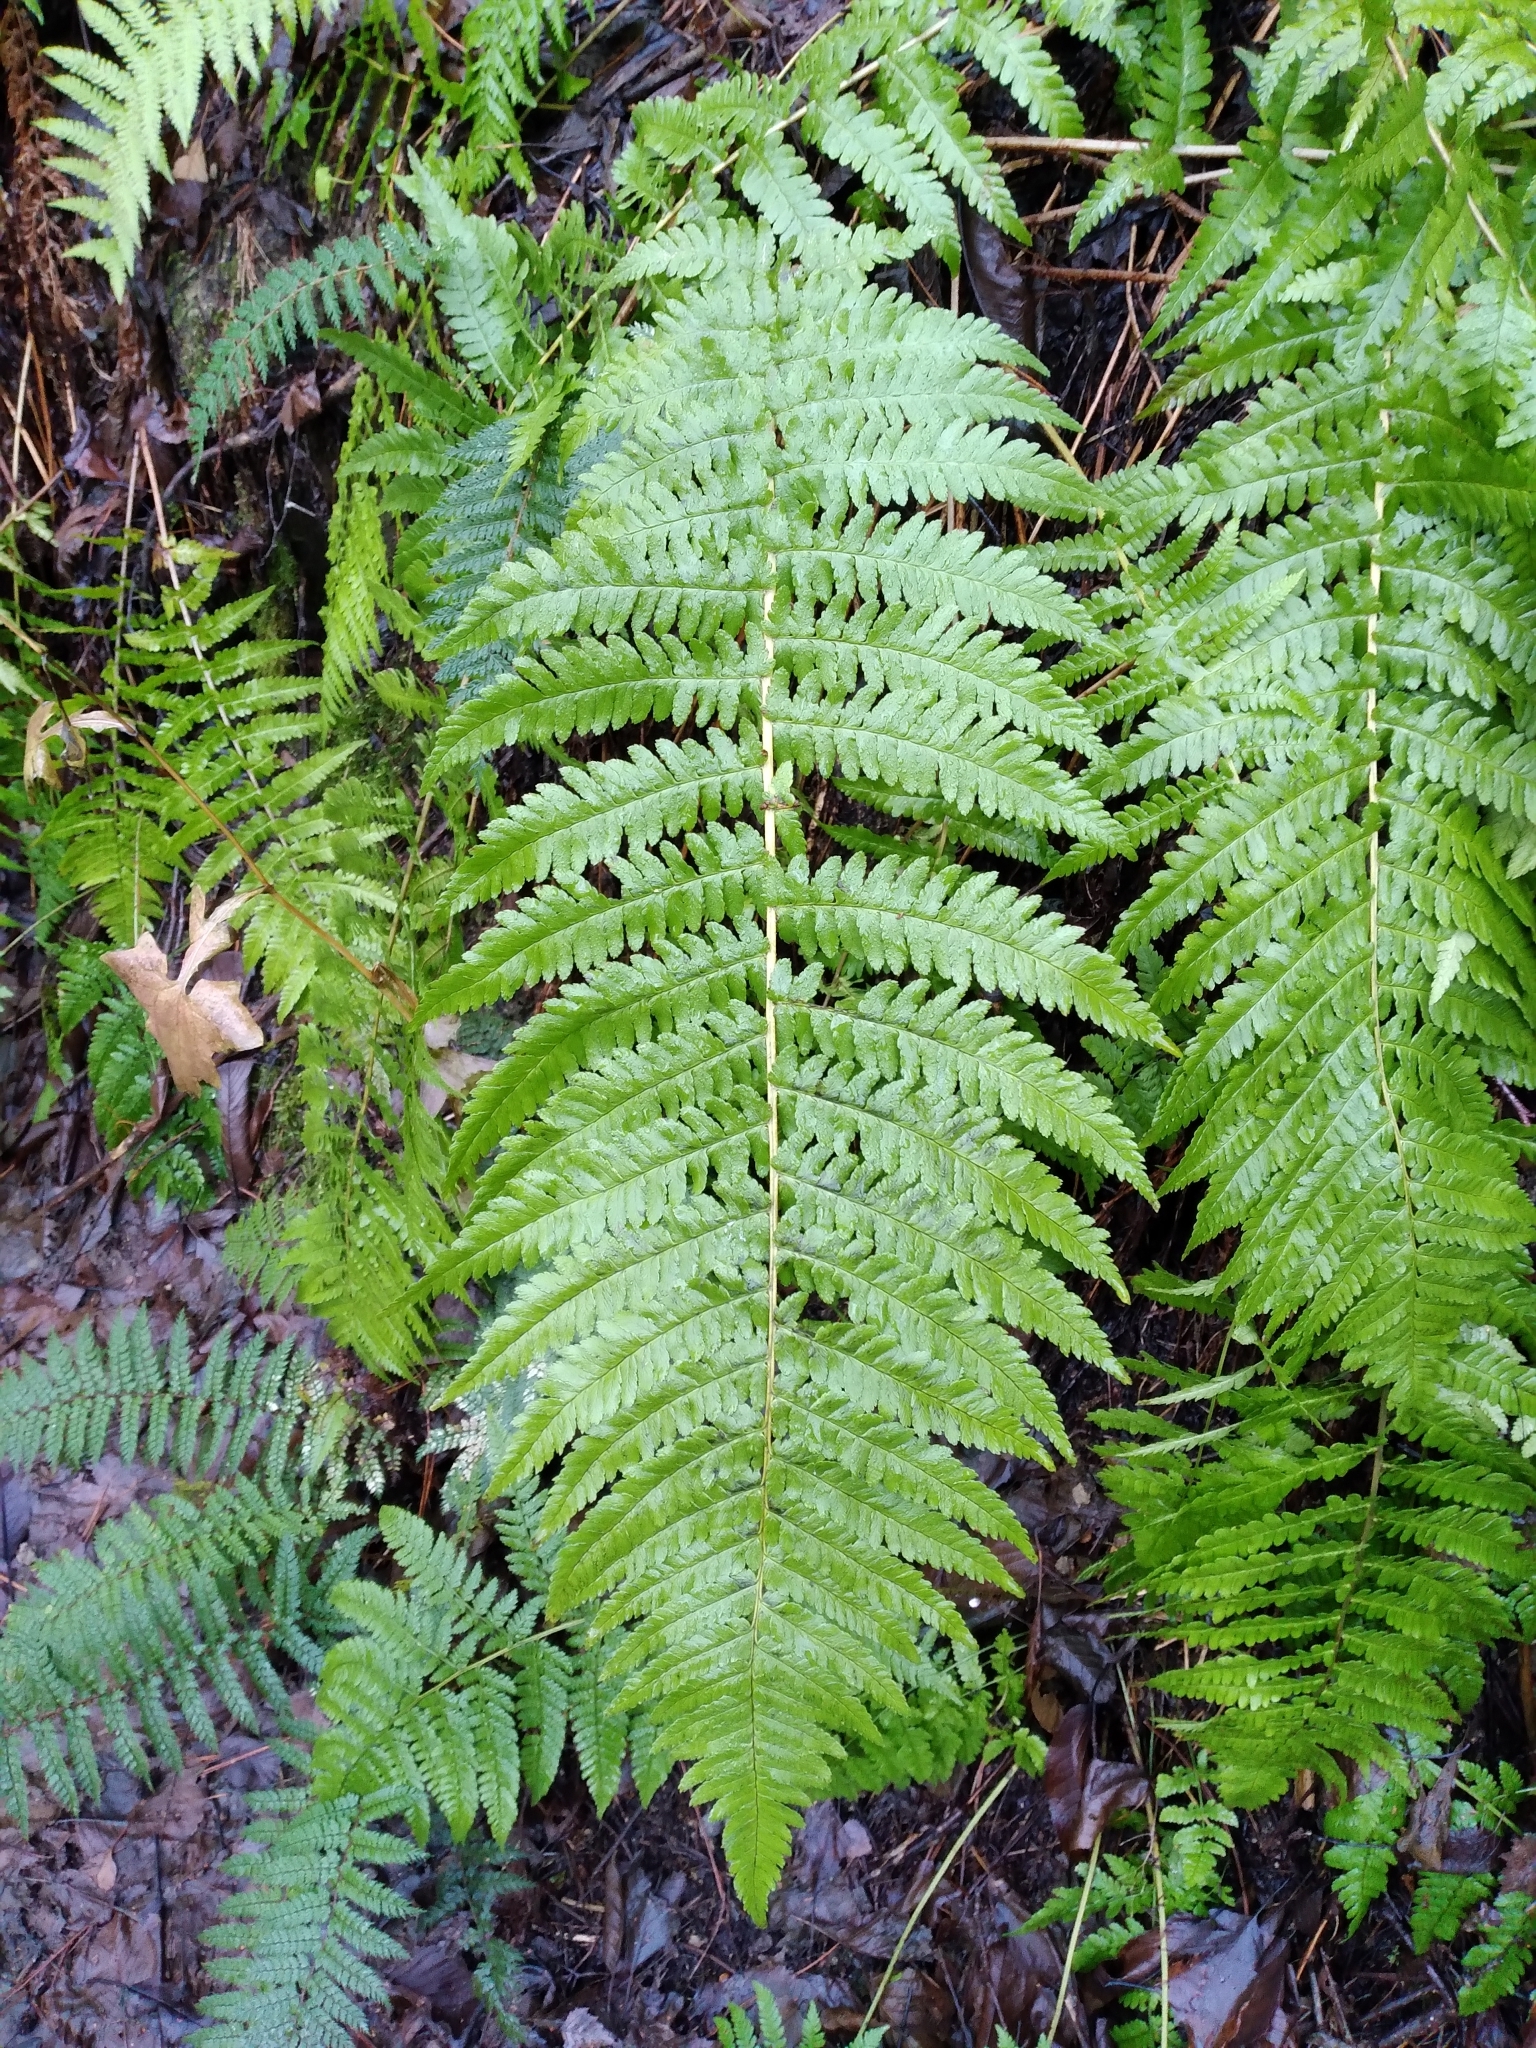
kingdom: Plantae
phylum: Tracheophyta
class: Polypodiopsida
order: Polypodiales
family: Dryopteridaceae
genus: Dryopteris
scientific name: Dryopteris filix-mas
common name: Male fern
